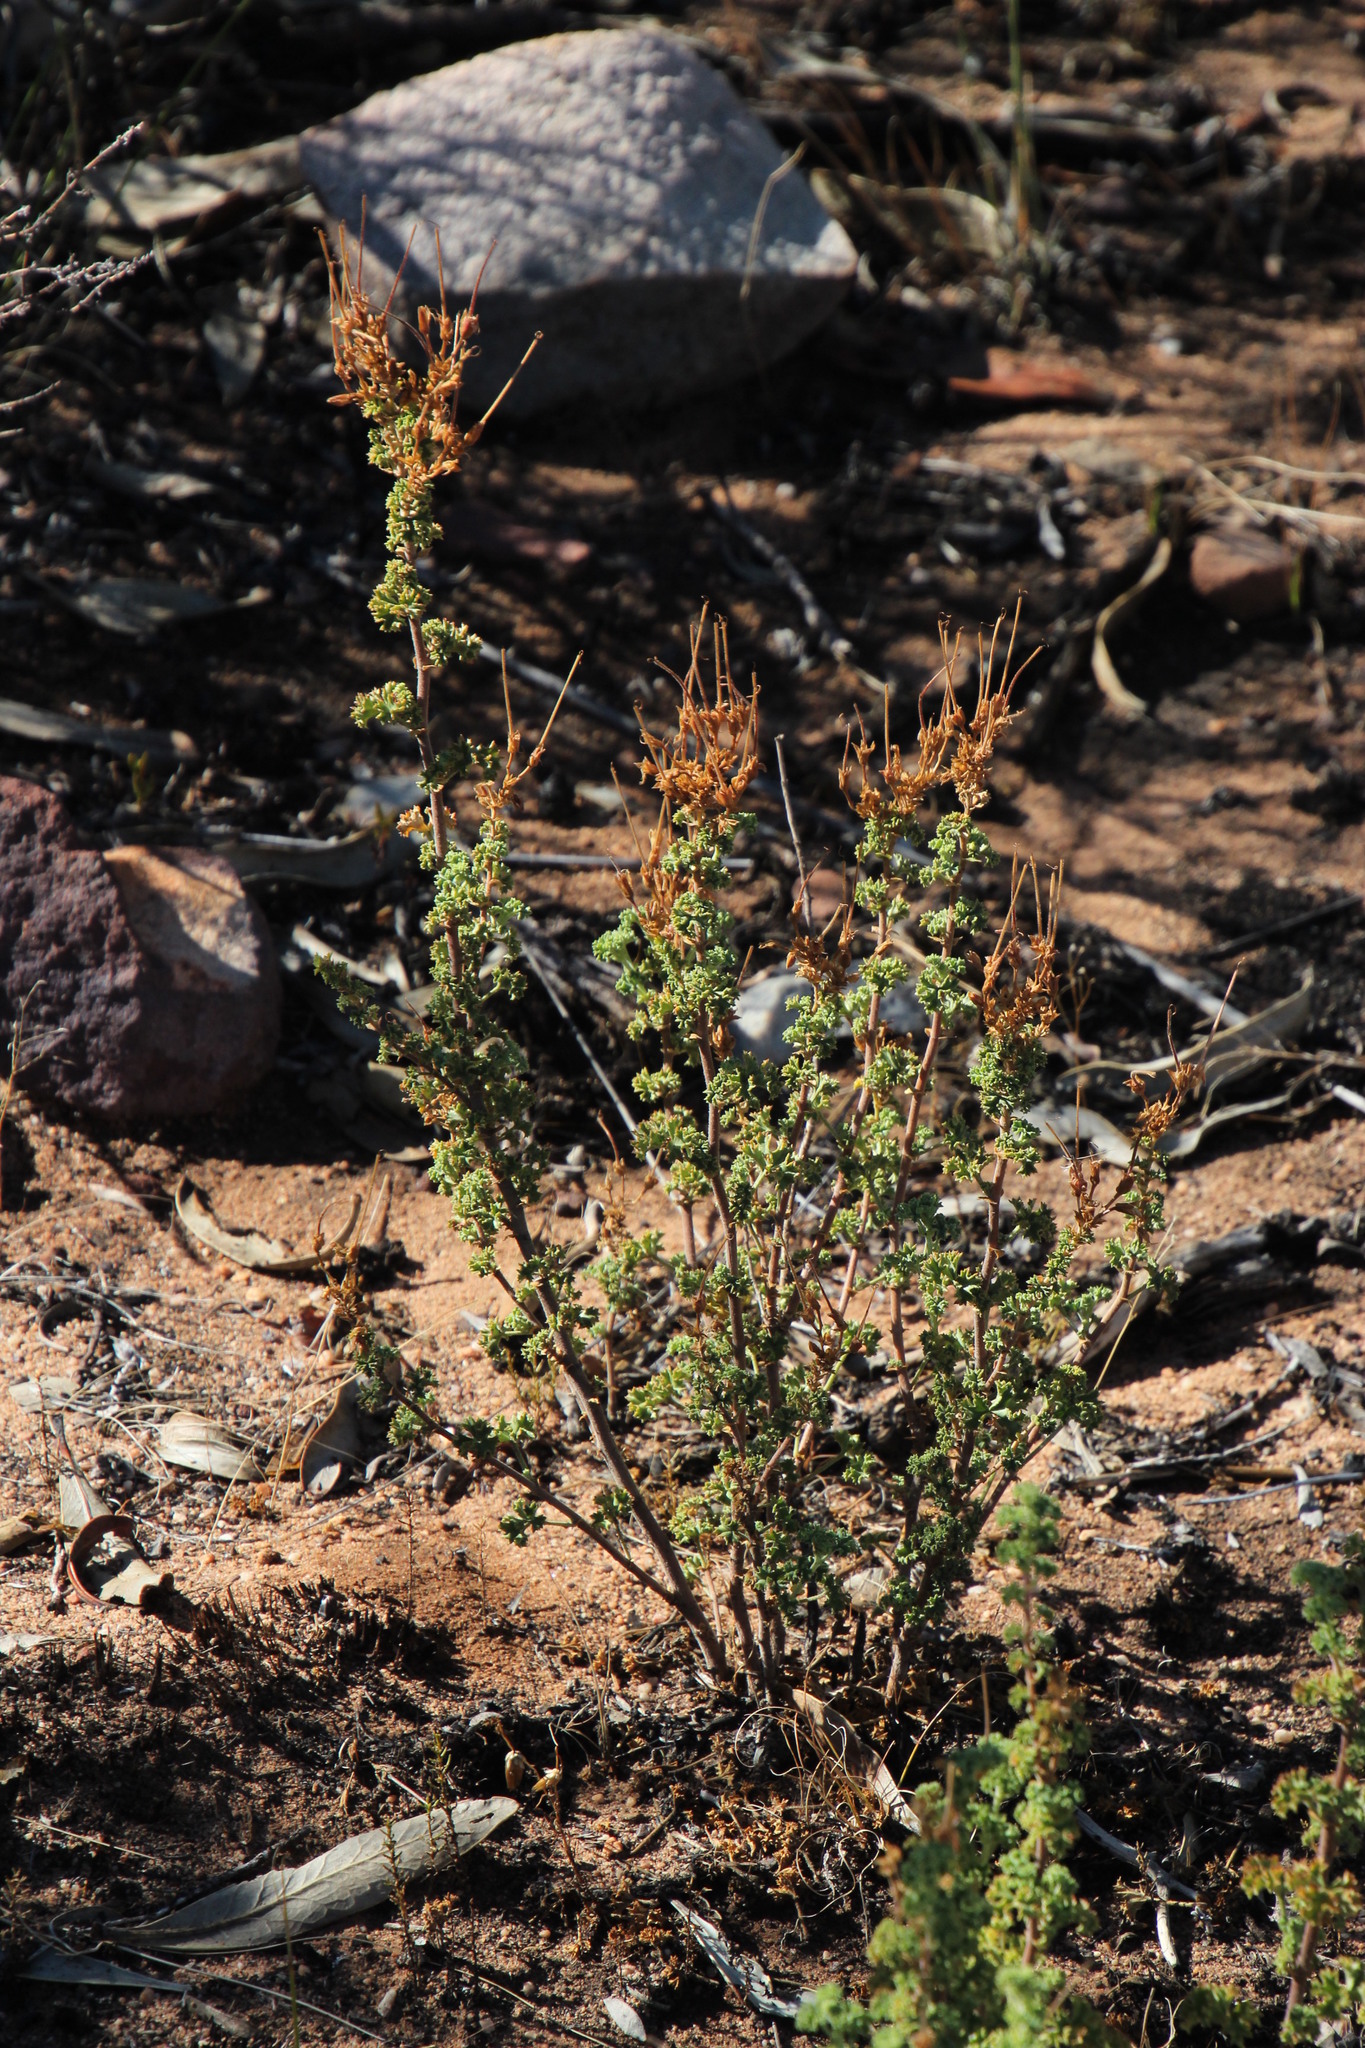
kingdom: Plantae
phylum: Tracheophyta
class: Magnoliopsida
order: Geraniales
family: Geraniaceae
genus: Pelargonium
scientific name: Pelargonium englerianum
